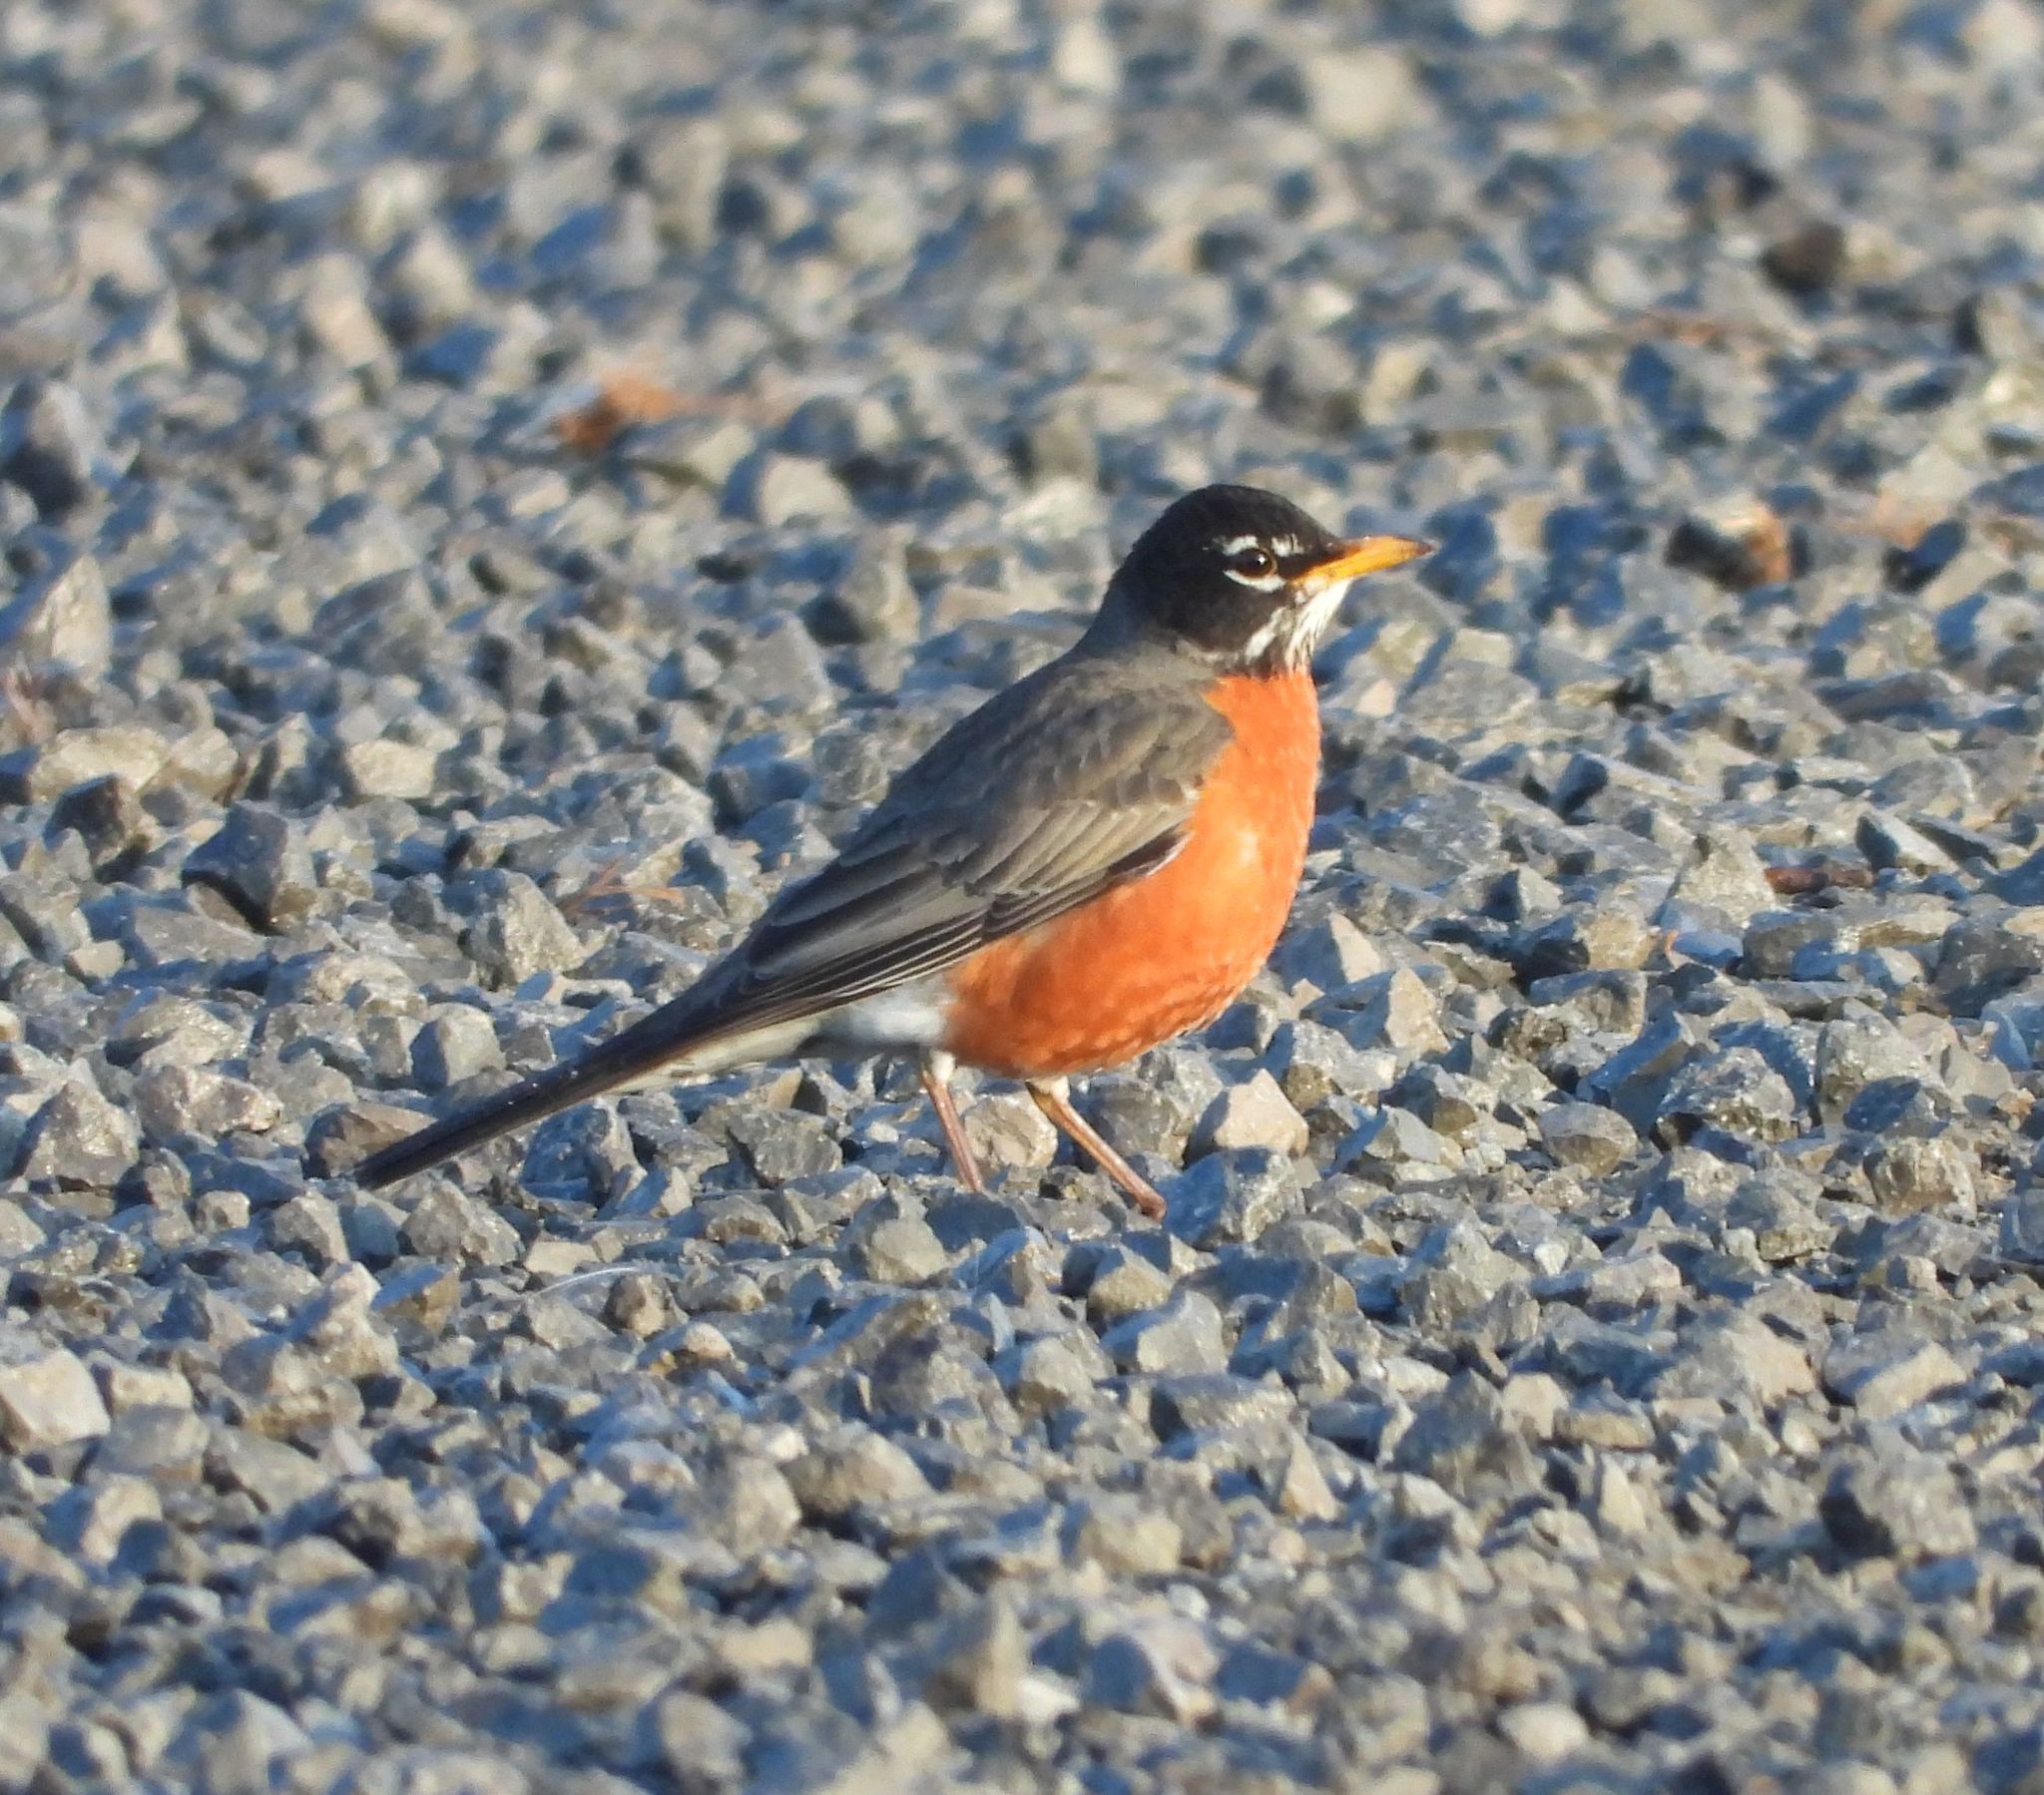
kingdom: Animalia
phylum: Chordata
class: Aves
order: Passeriformes
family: Turdidae
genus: Turdus
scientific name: Turdus migratorius
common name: American robin
